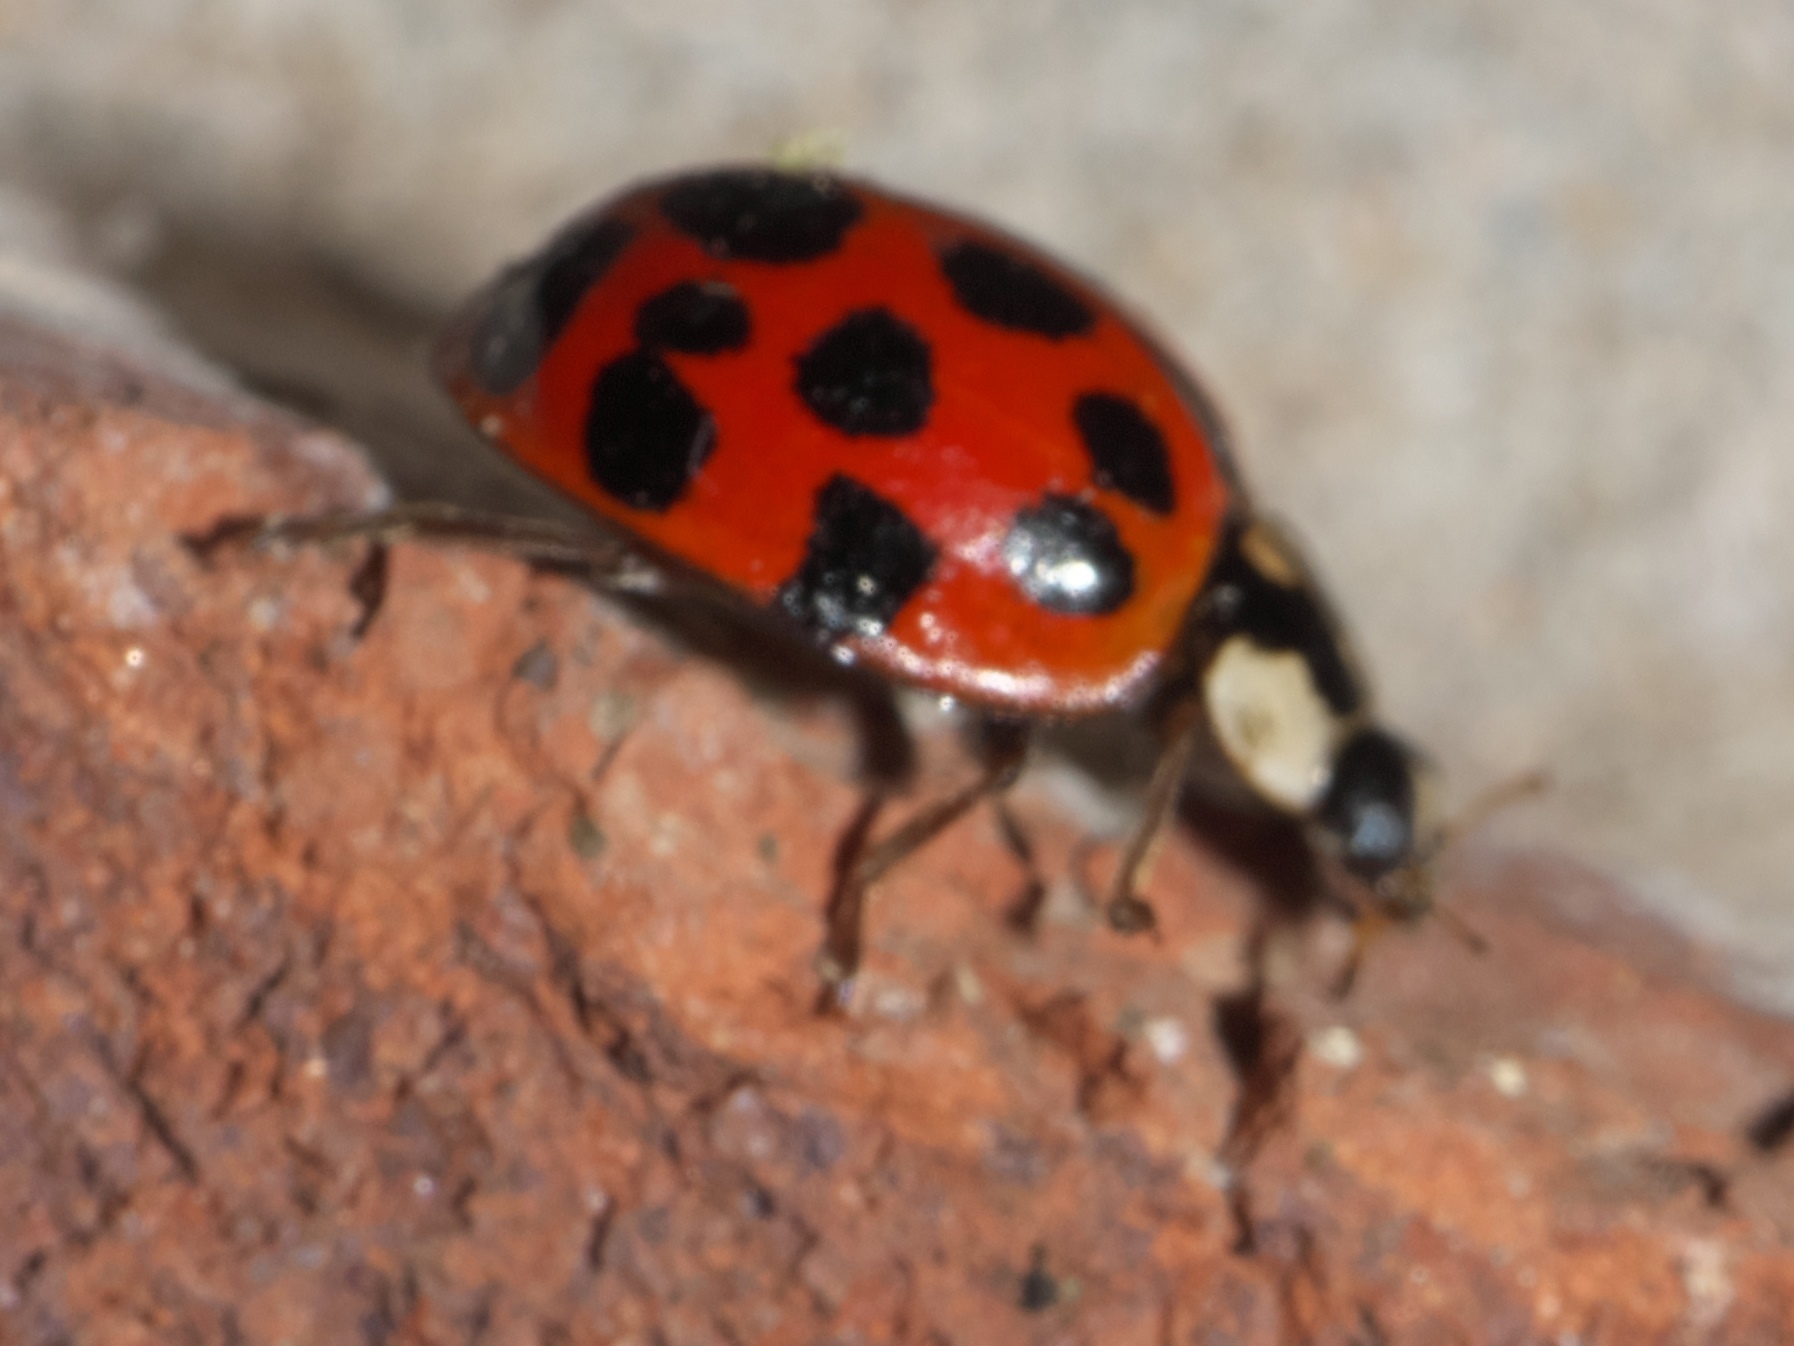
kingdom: Animalia
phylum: Arthropoda
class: Insecta
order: Coleoptera
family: Coccinellidae
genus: Harmonia
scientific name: Harmonia axyridis
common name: Harlequin ladybird
